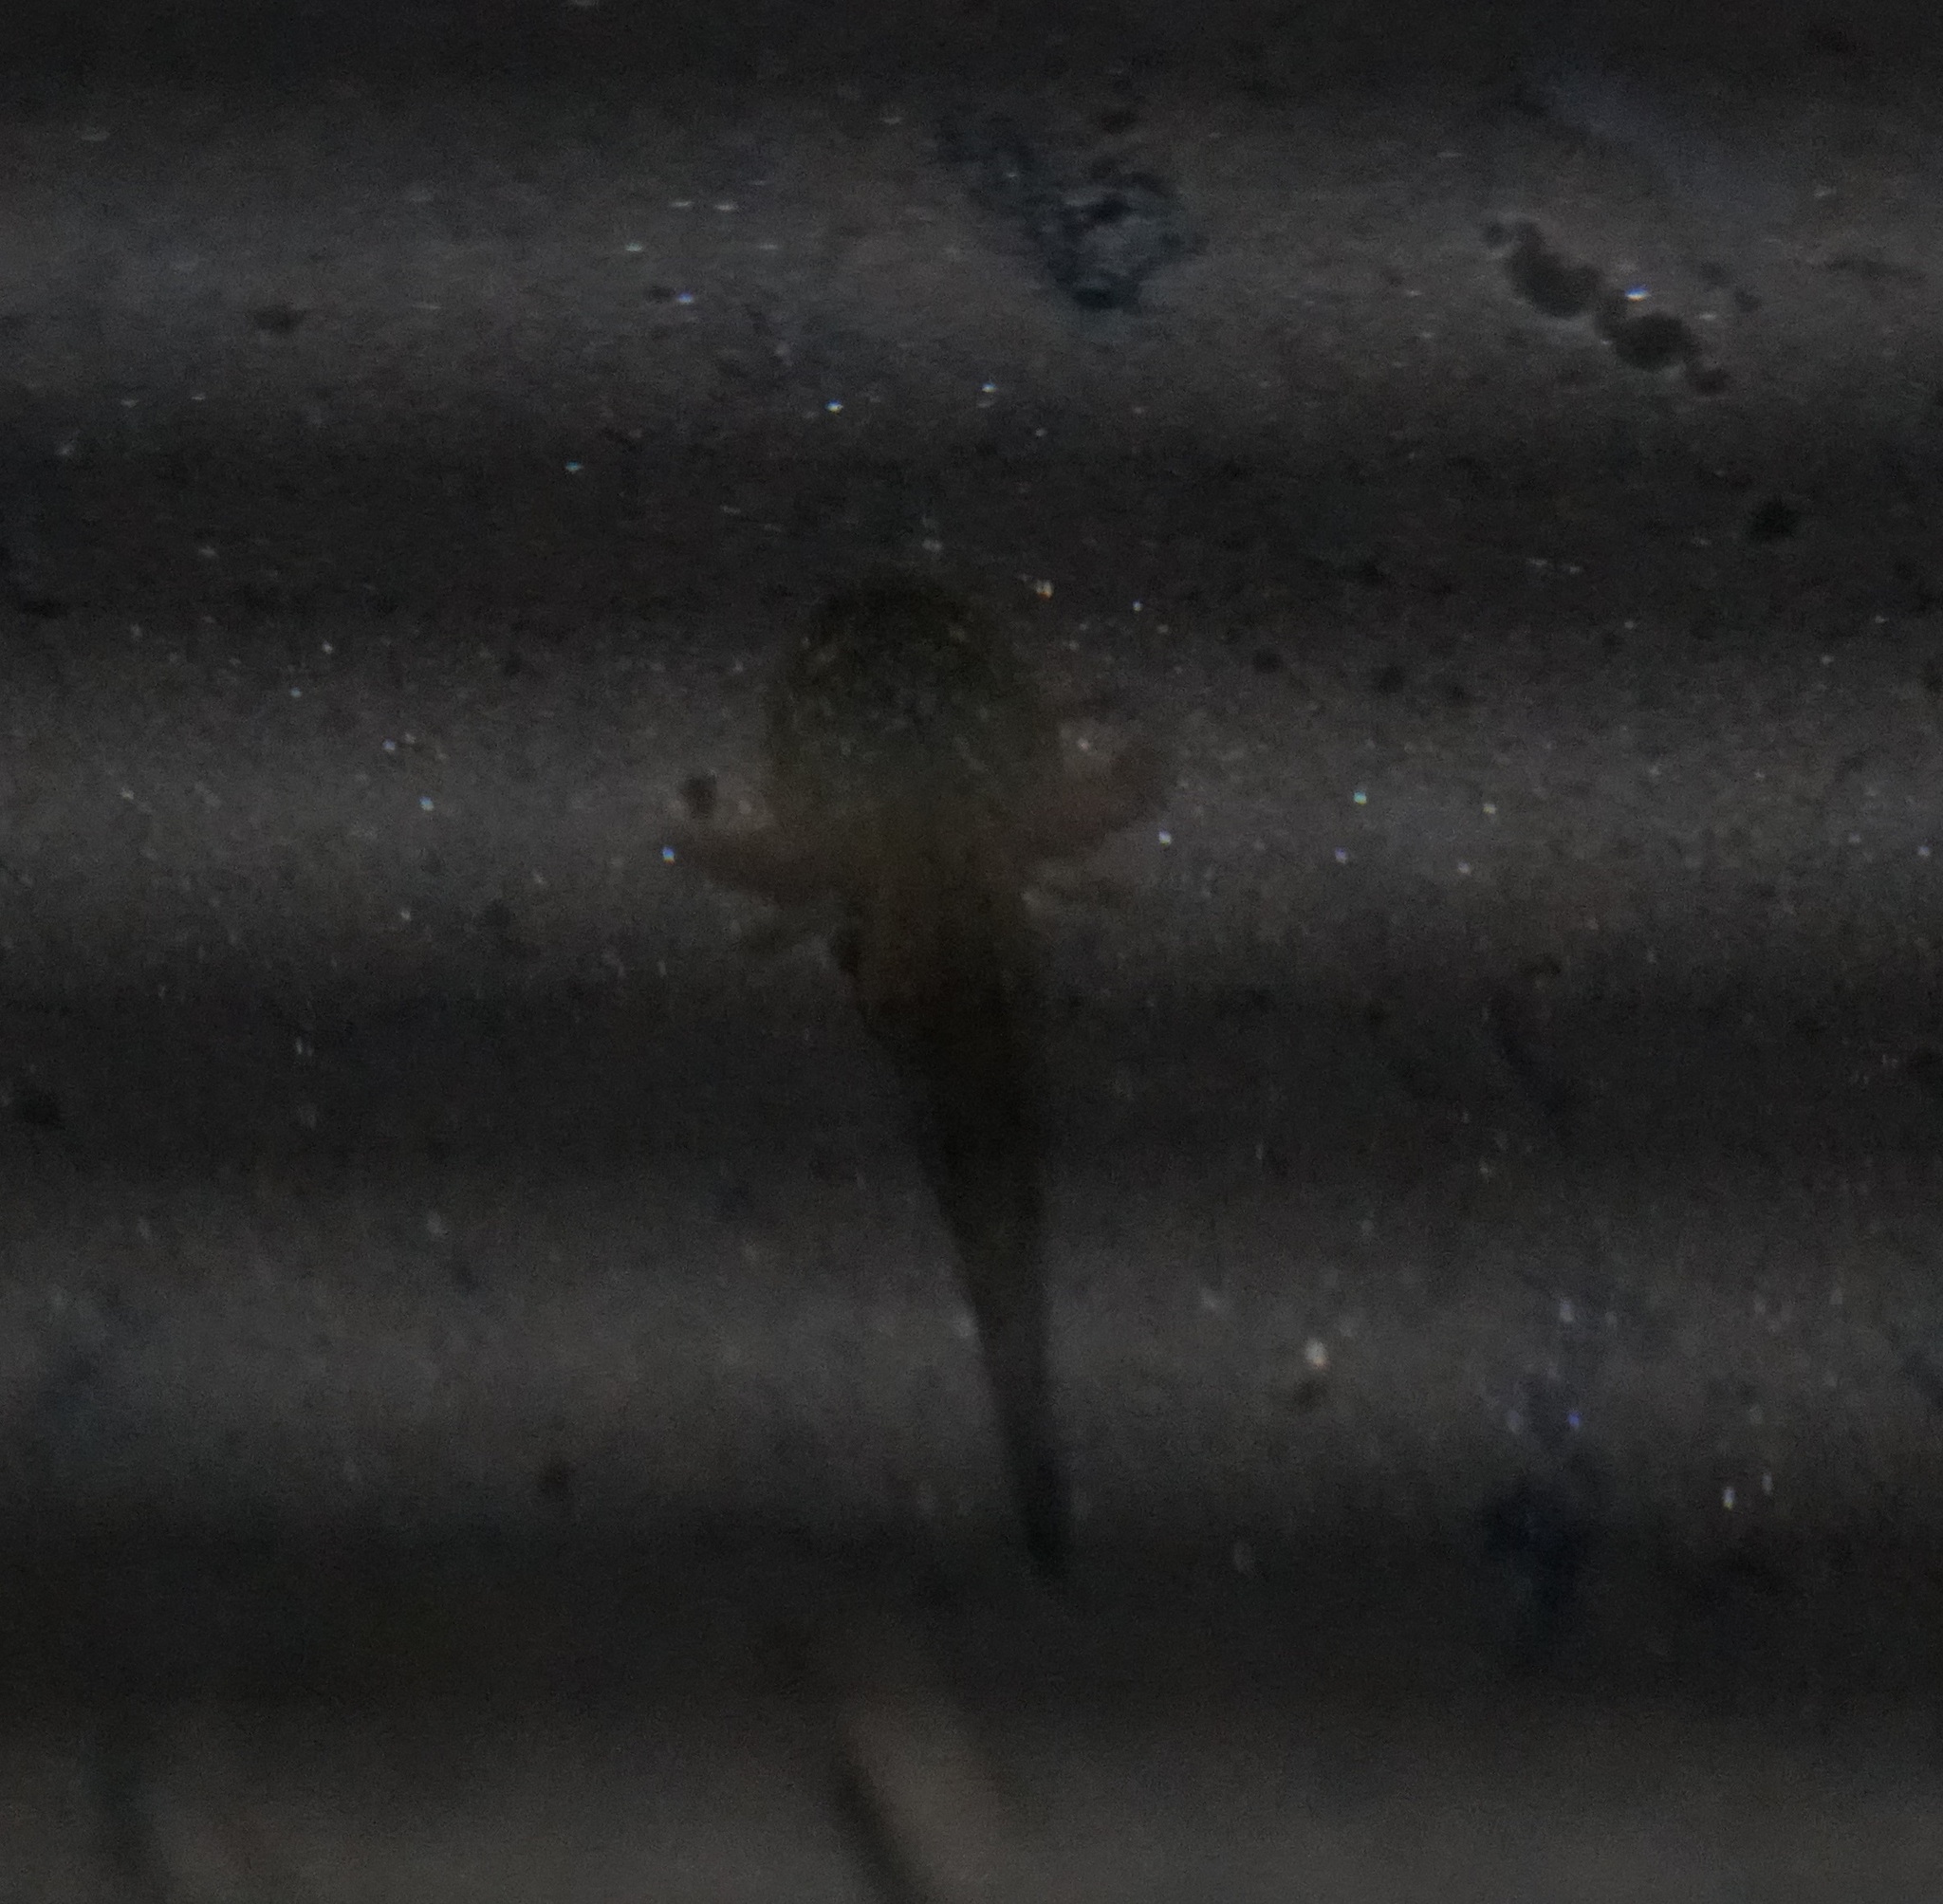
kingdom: Animalia
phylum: Chordata
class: Amphibia
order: Caudata
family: Hynobiidae
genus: Hynobius
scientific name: Hynobius leechii
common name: Gensan salamander
